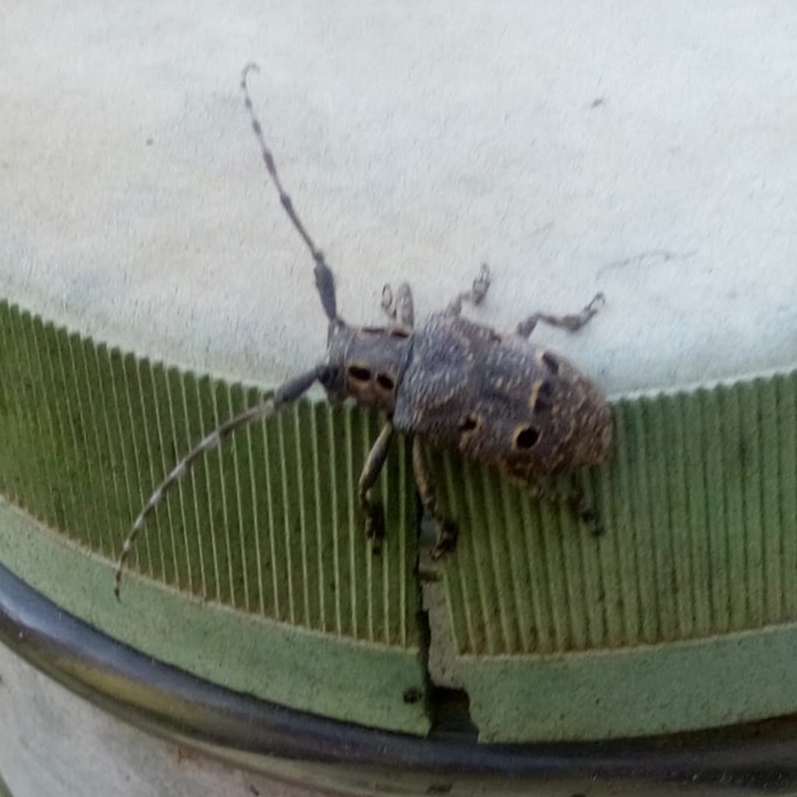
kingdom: Animalia
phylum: Arthropoda
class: Insecta
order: Coleoptera
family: Cerambycidae
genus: Mesosa
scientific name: Mesosa curculionoides
